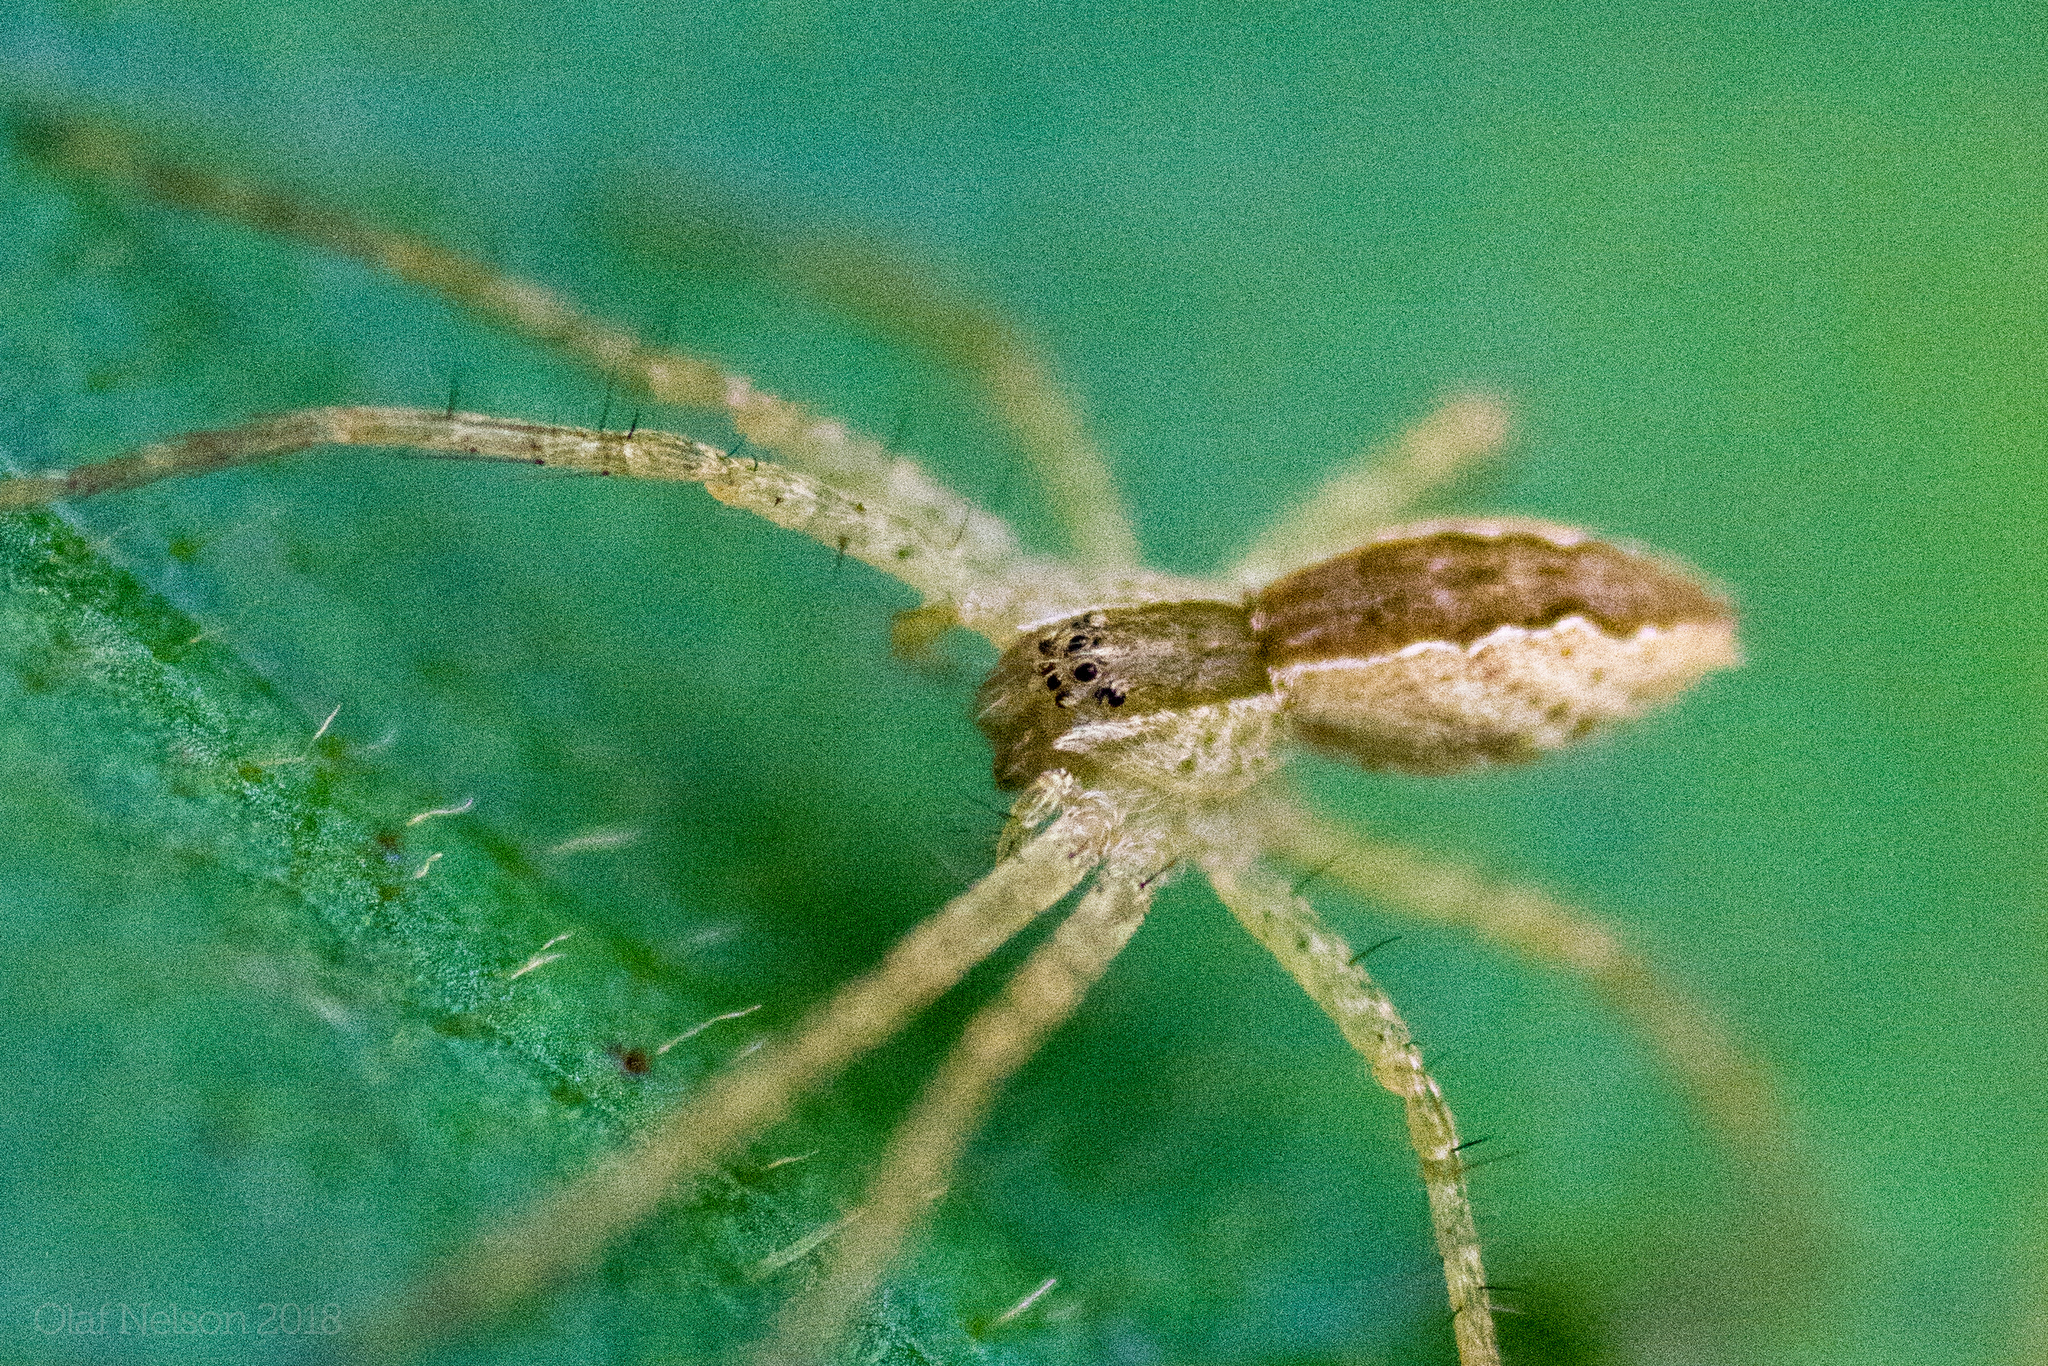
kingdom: Animalia
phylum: Arthropoda
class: Arachnida
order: Araneae
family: Pisauridae
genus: Pisaurina
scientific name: Pisaurina mira
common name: American nursery web spider
